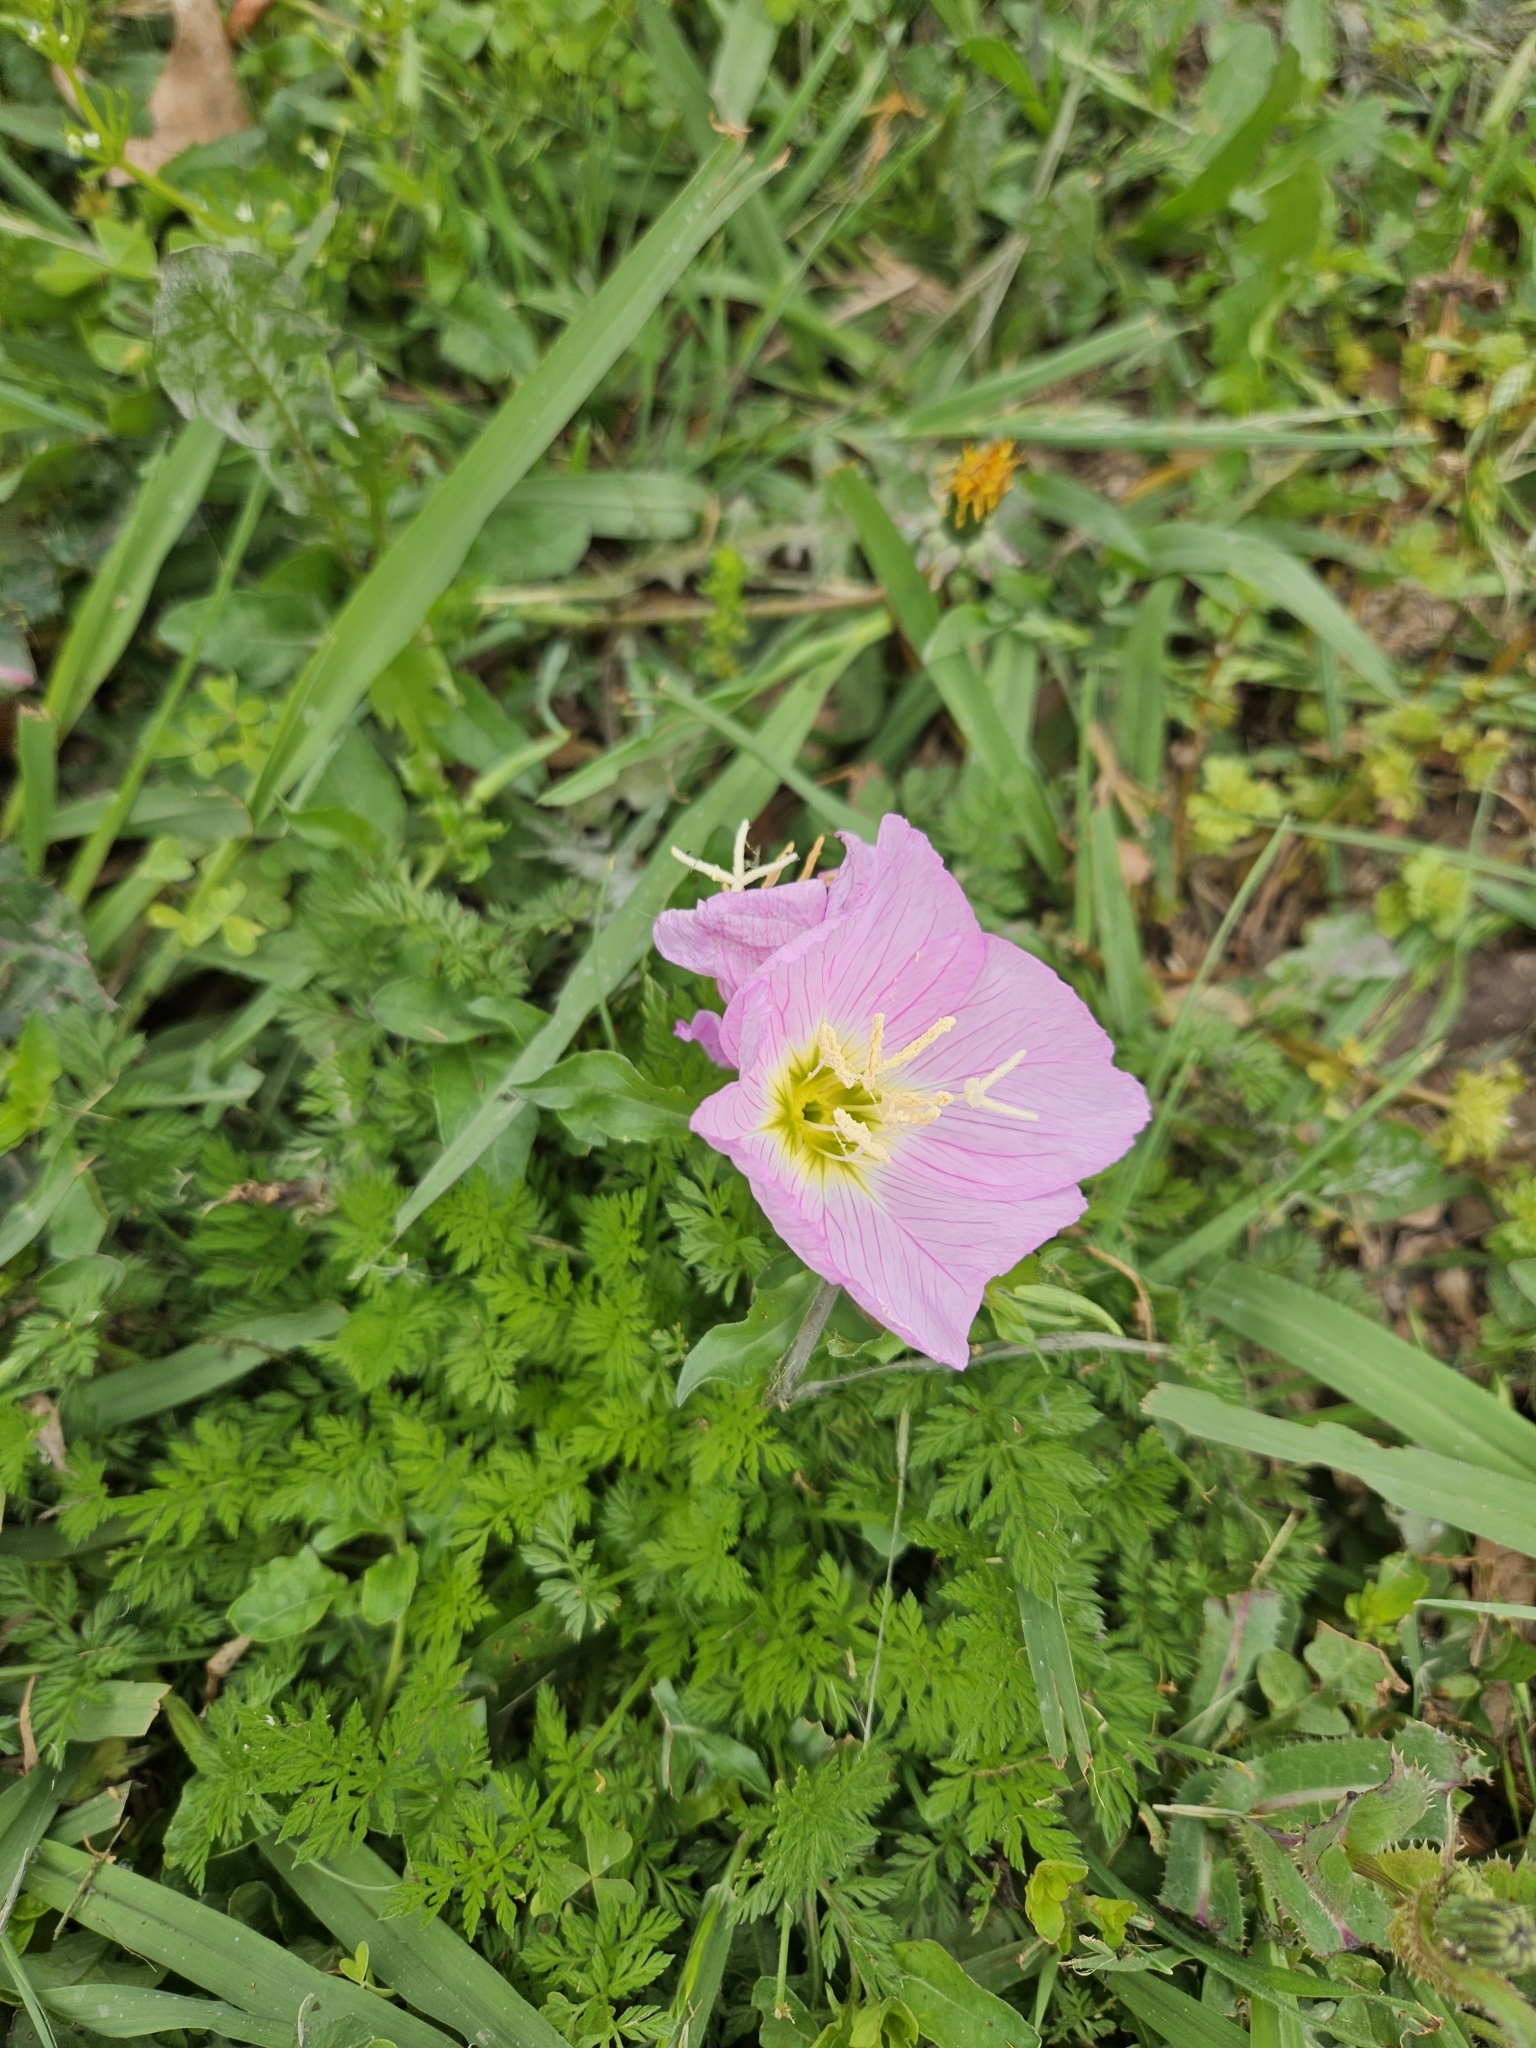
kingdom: Plantae
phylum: Tracheophyta
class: Magnoliopsida
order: Myrtales
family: Onagraceae
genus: Oenothera
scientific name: Oenothera speciosa
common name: White evening-primrose
